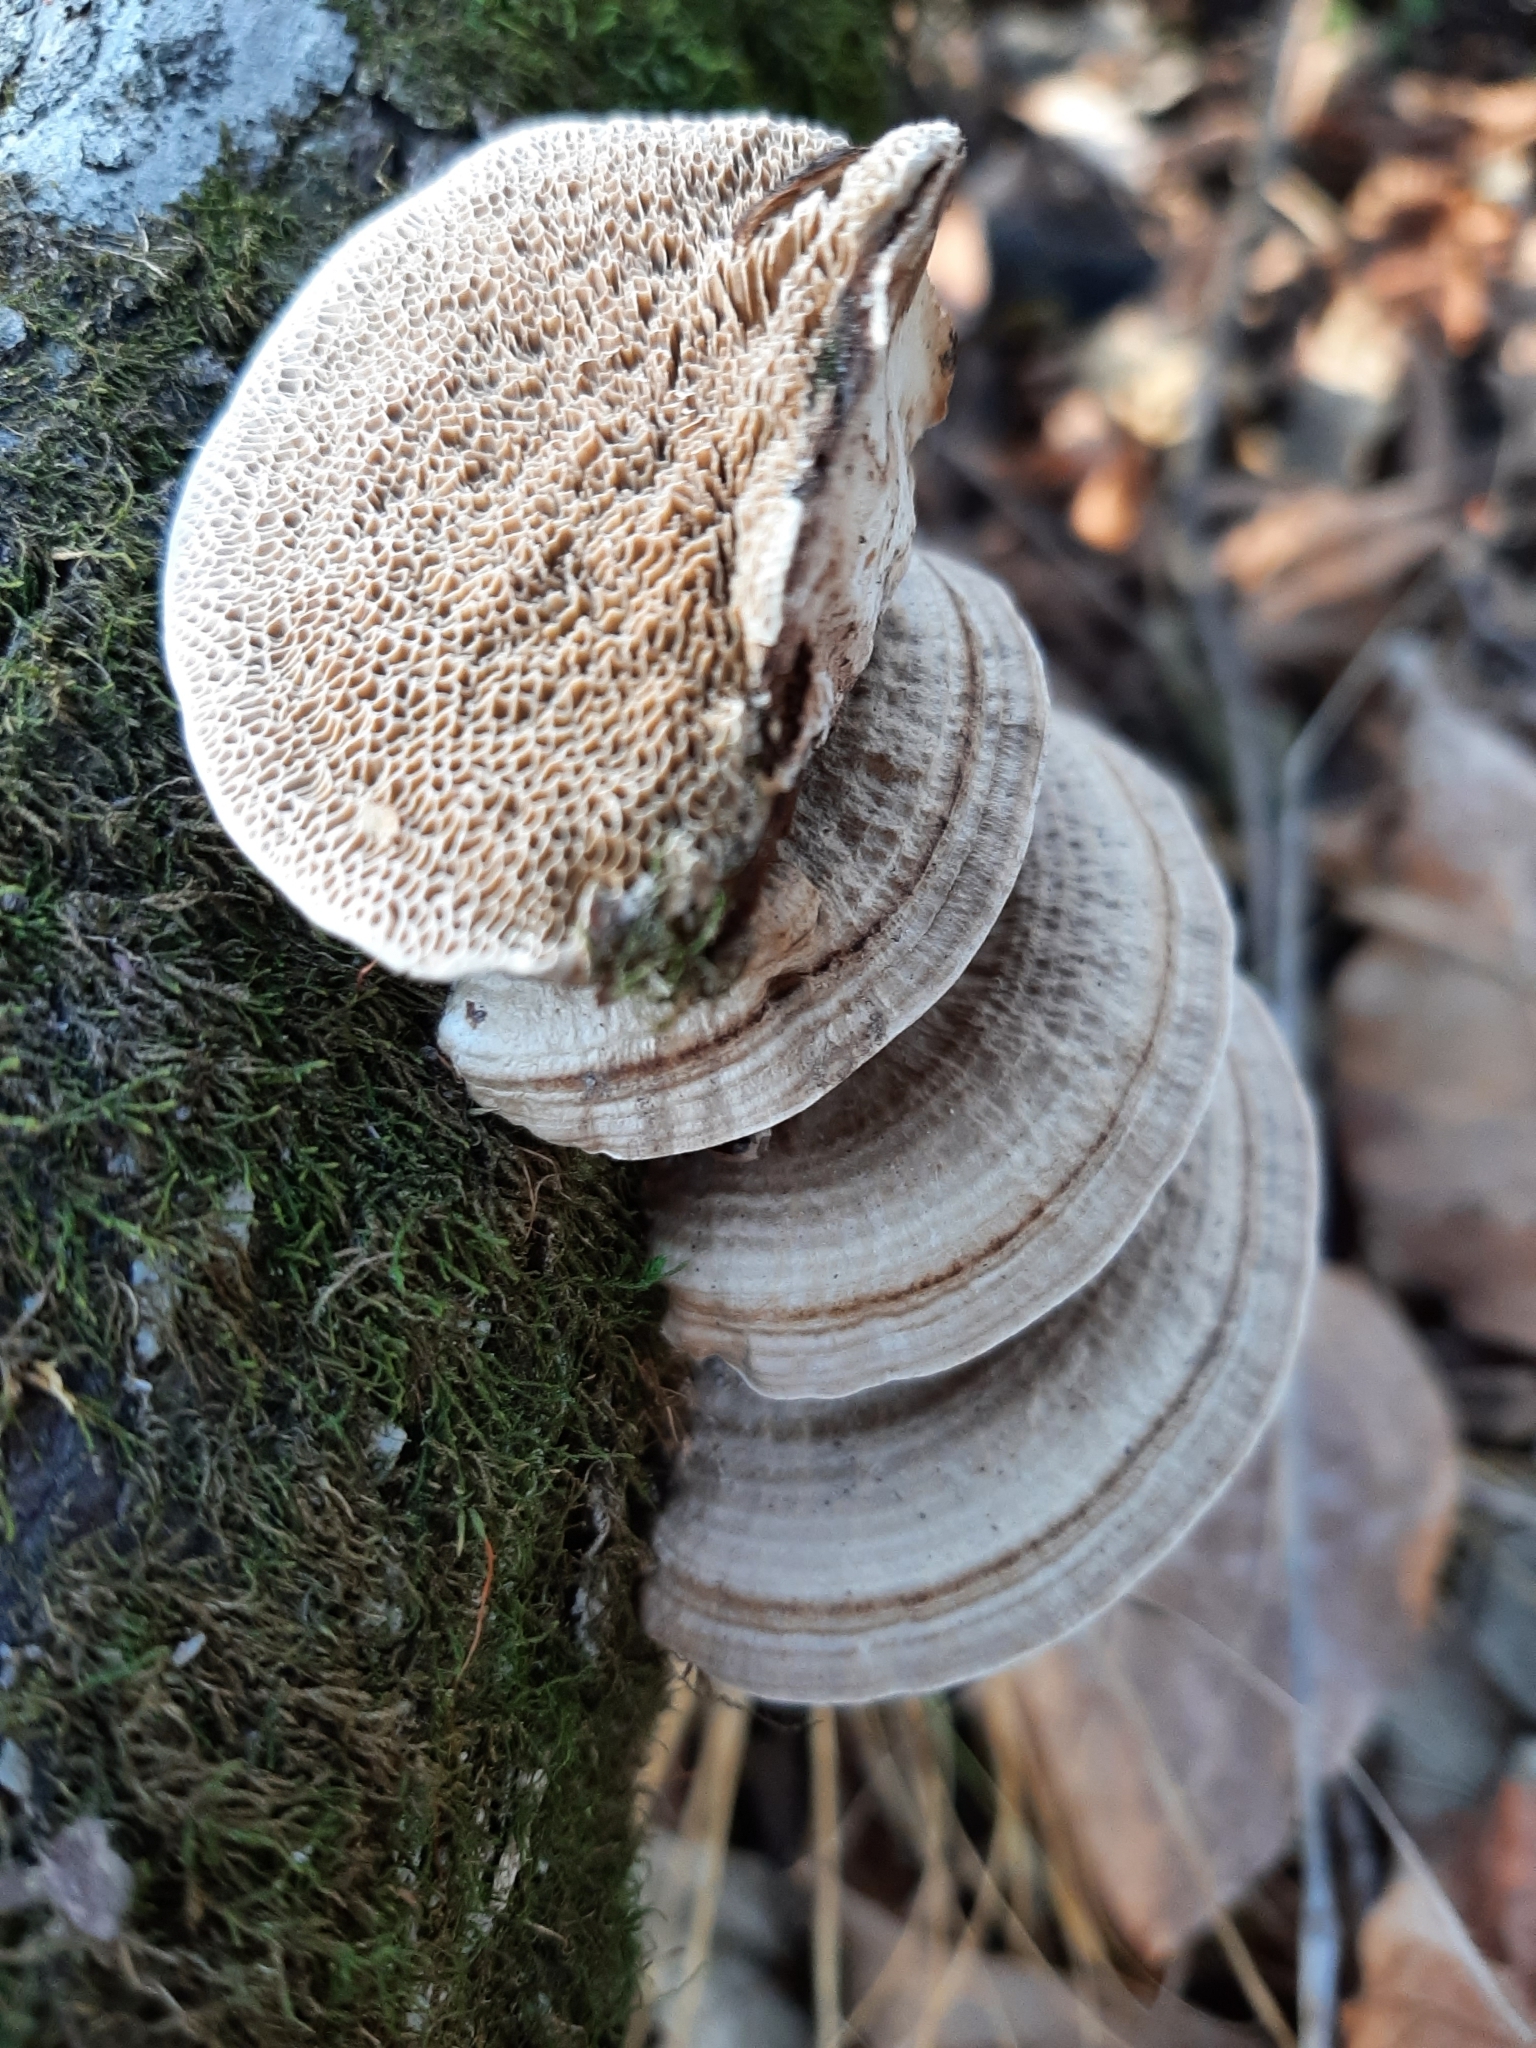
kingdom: Fungi
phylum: Basidiomycota
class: Agaricomycetes
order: Polyporales
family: Polyporaceae
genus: Daedaleopsis
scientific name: Daedaleopsis confragosa
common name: Blushing bracket
